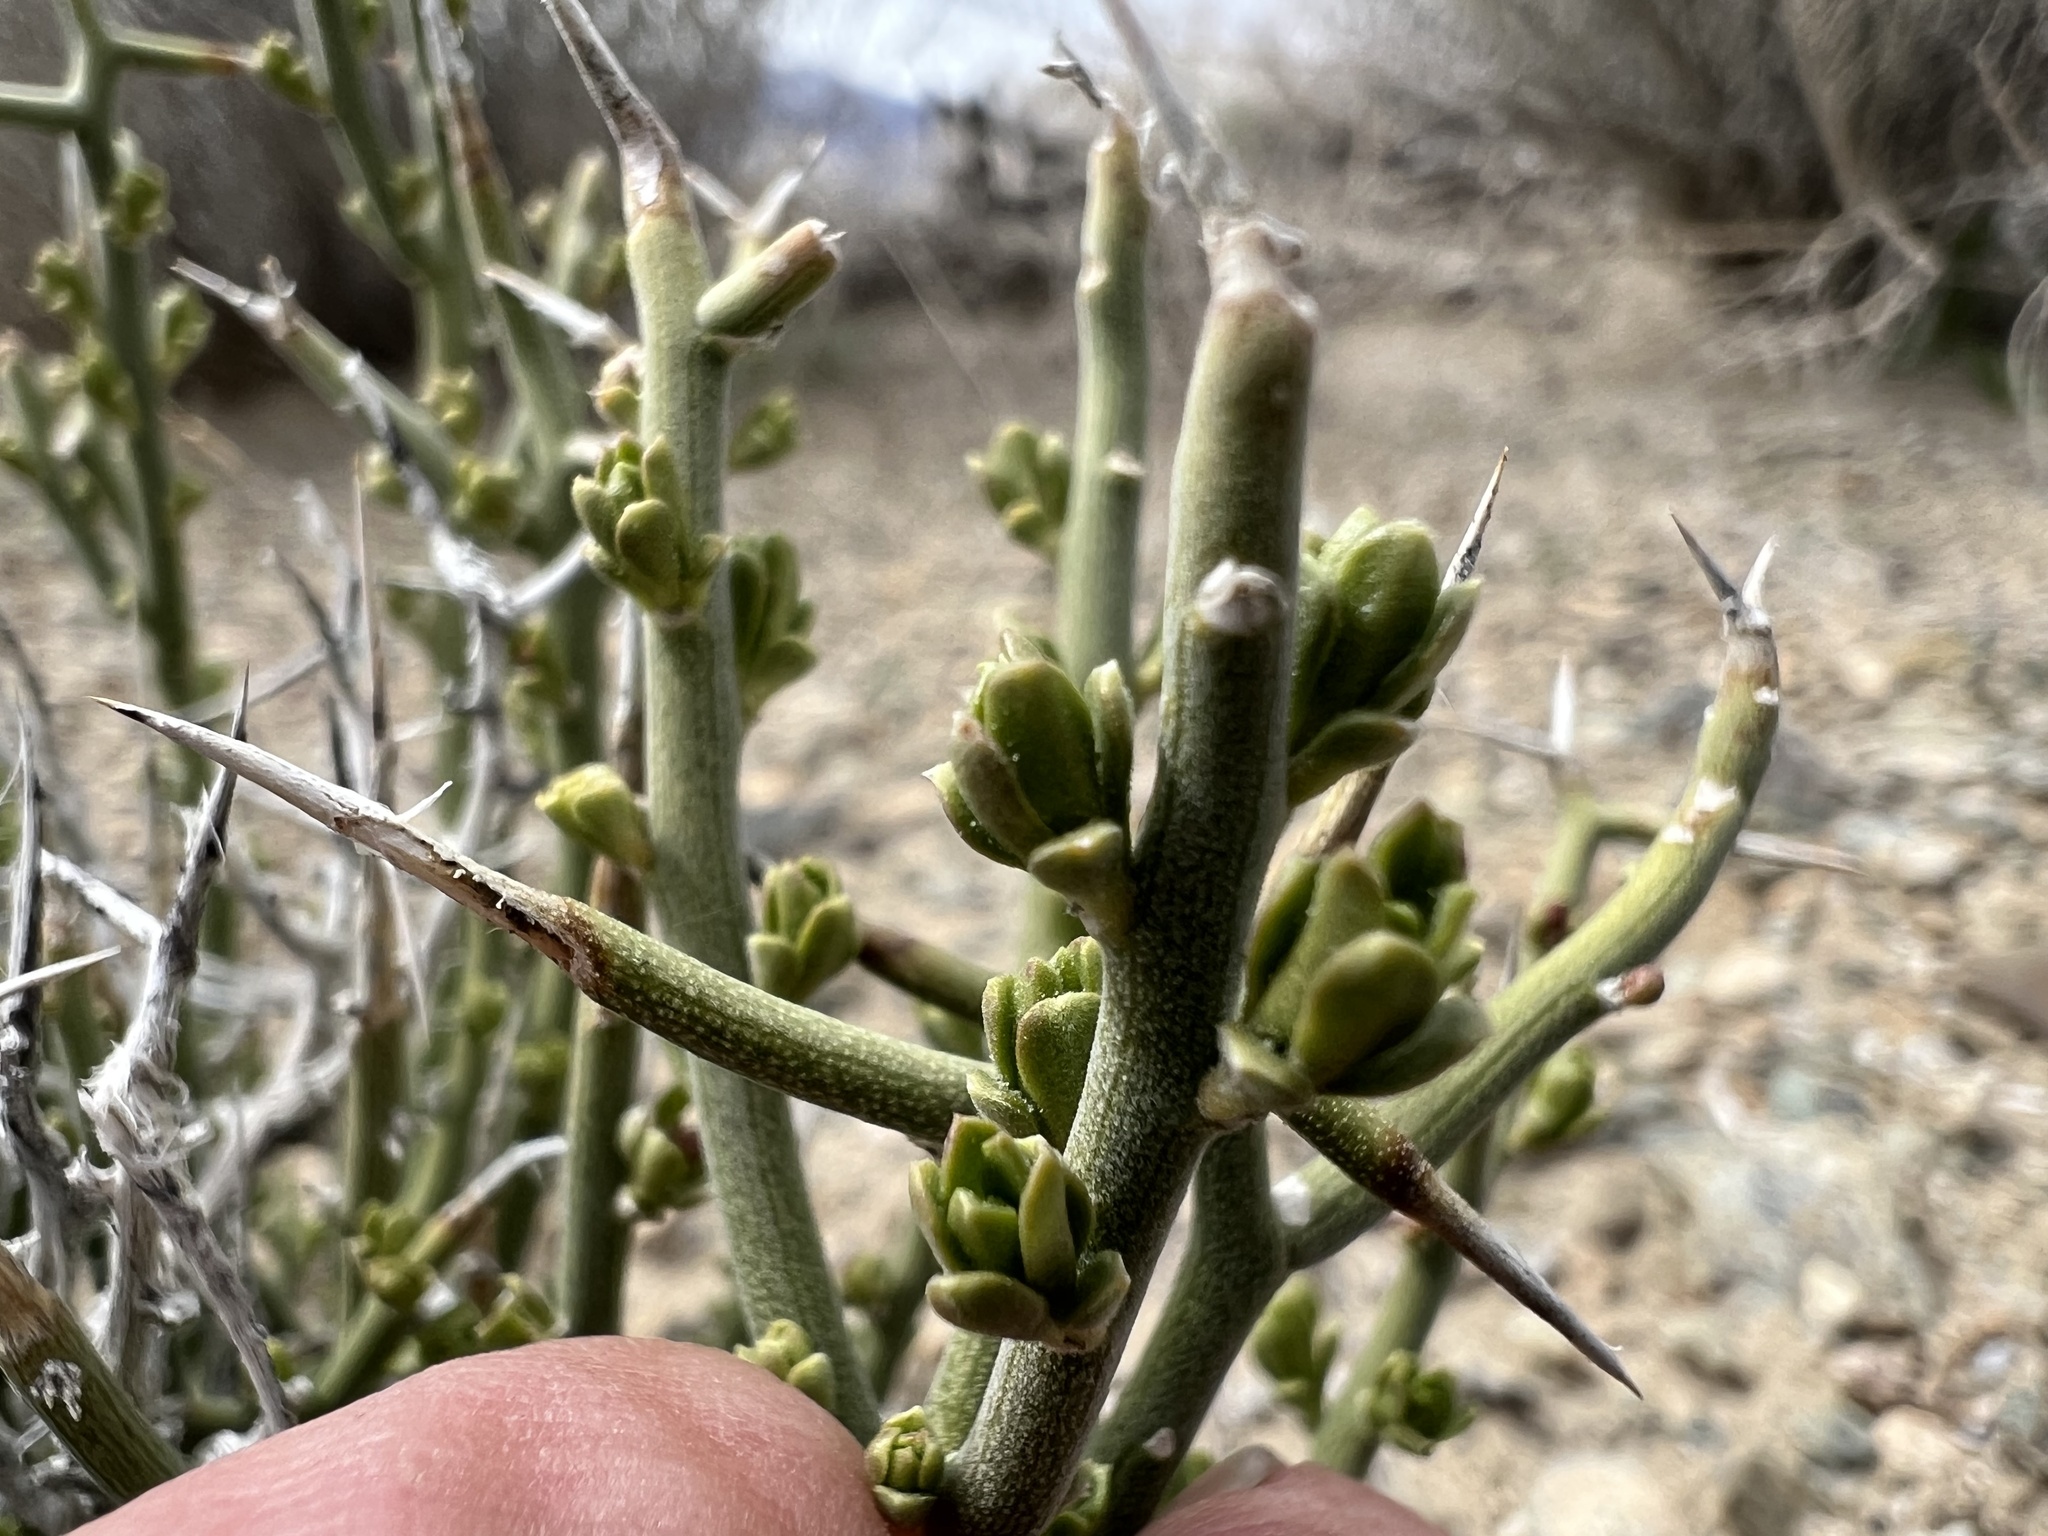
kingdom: Plantae
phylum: Tracheophyta
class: Magnoliopsida
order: Lamiales
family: Oleaceae
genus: Menodora
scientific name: Menodora spinescens
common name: Spiny menodora
